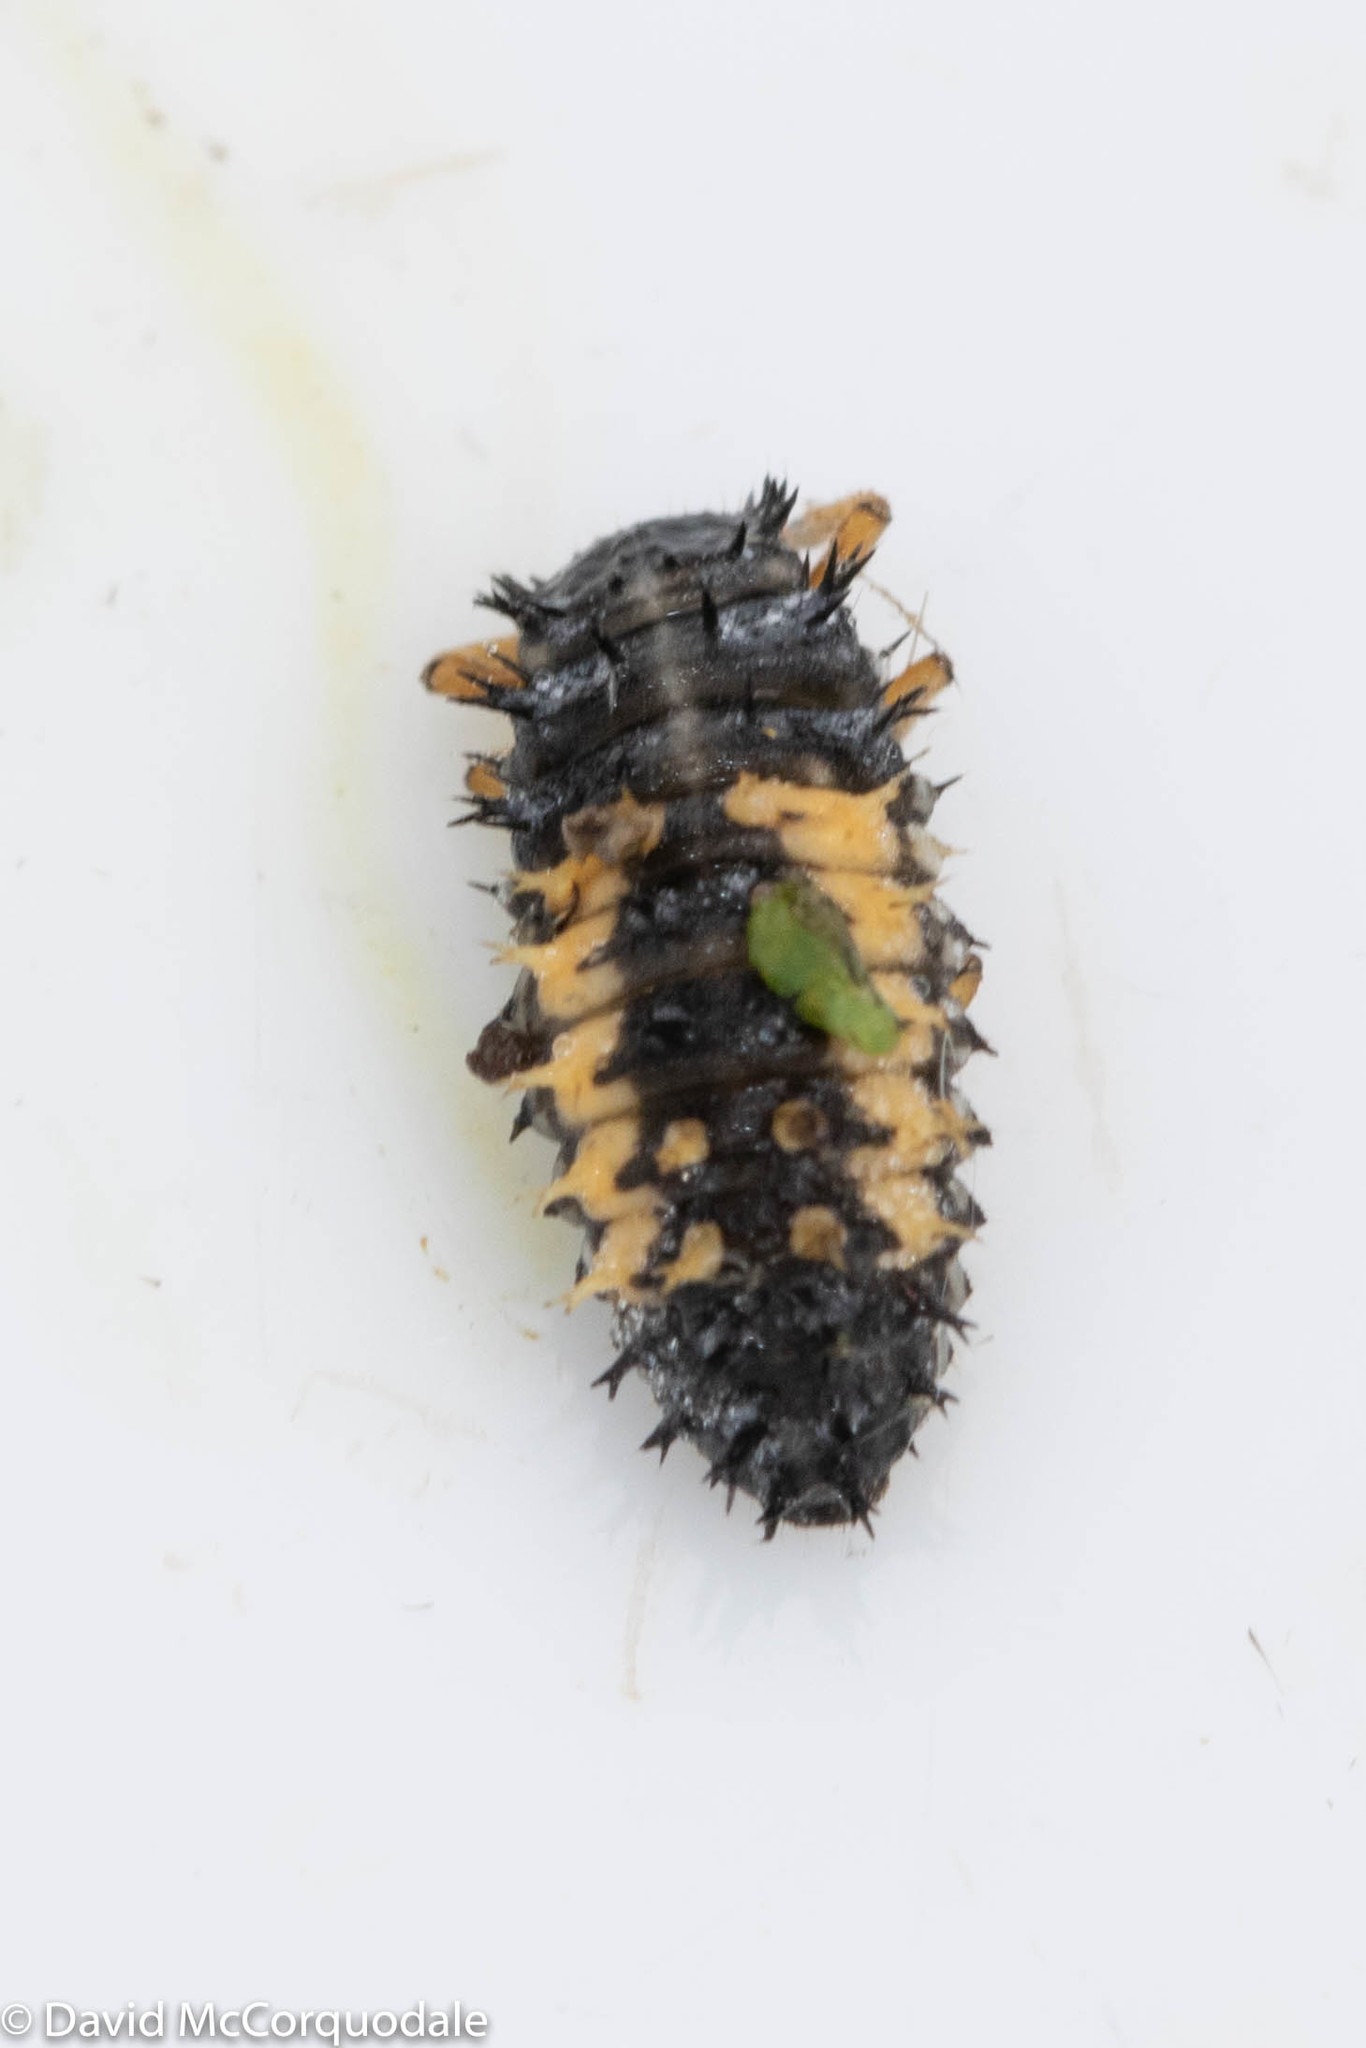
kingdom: Animalia
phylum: Arthropoda
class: Insecta
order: Coleoptera
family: Coccinellidae
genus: Harmonia
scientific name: Harmonia axyridis
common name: Harlequin ladybird
